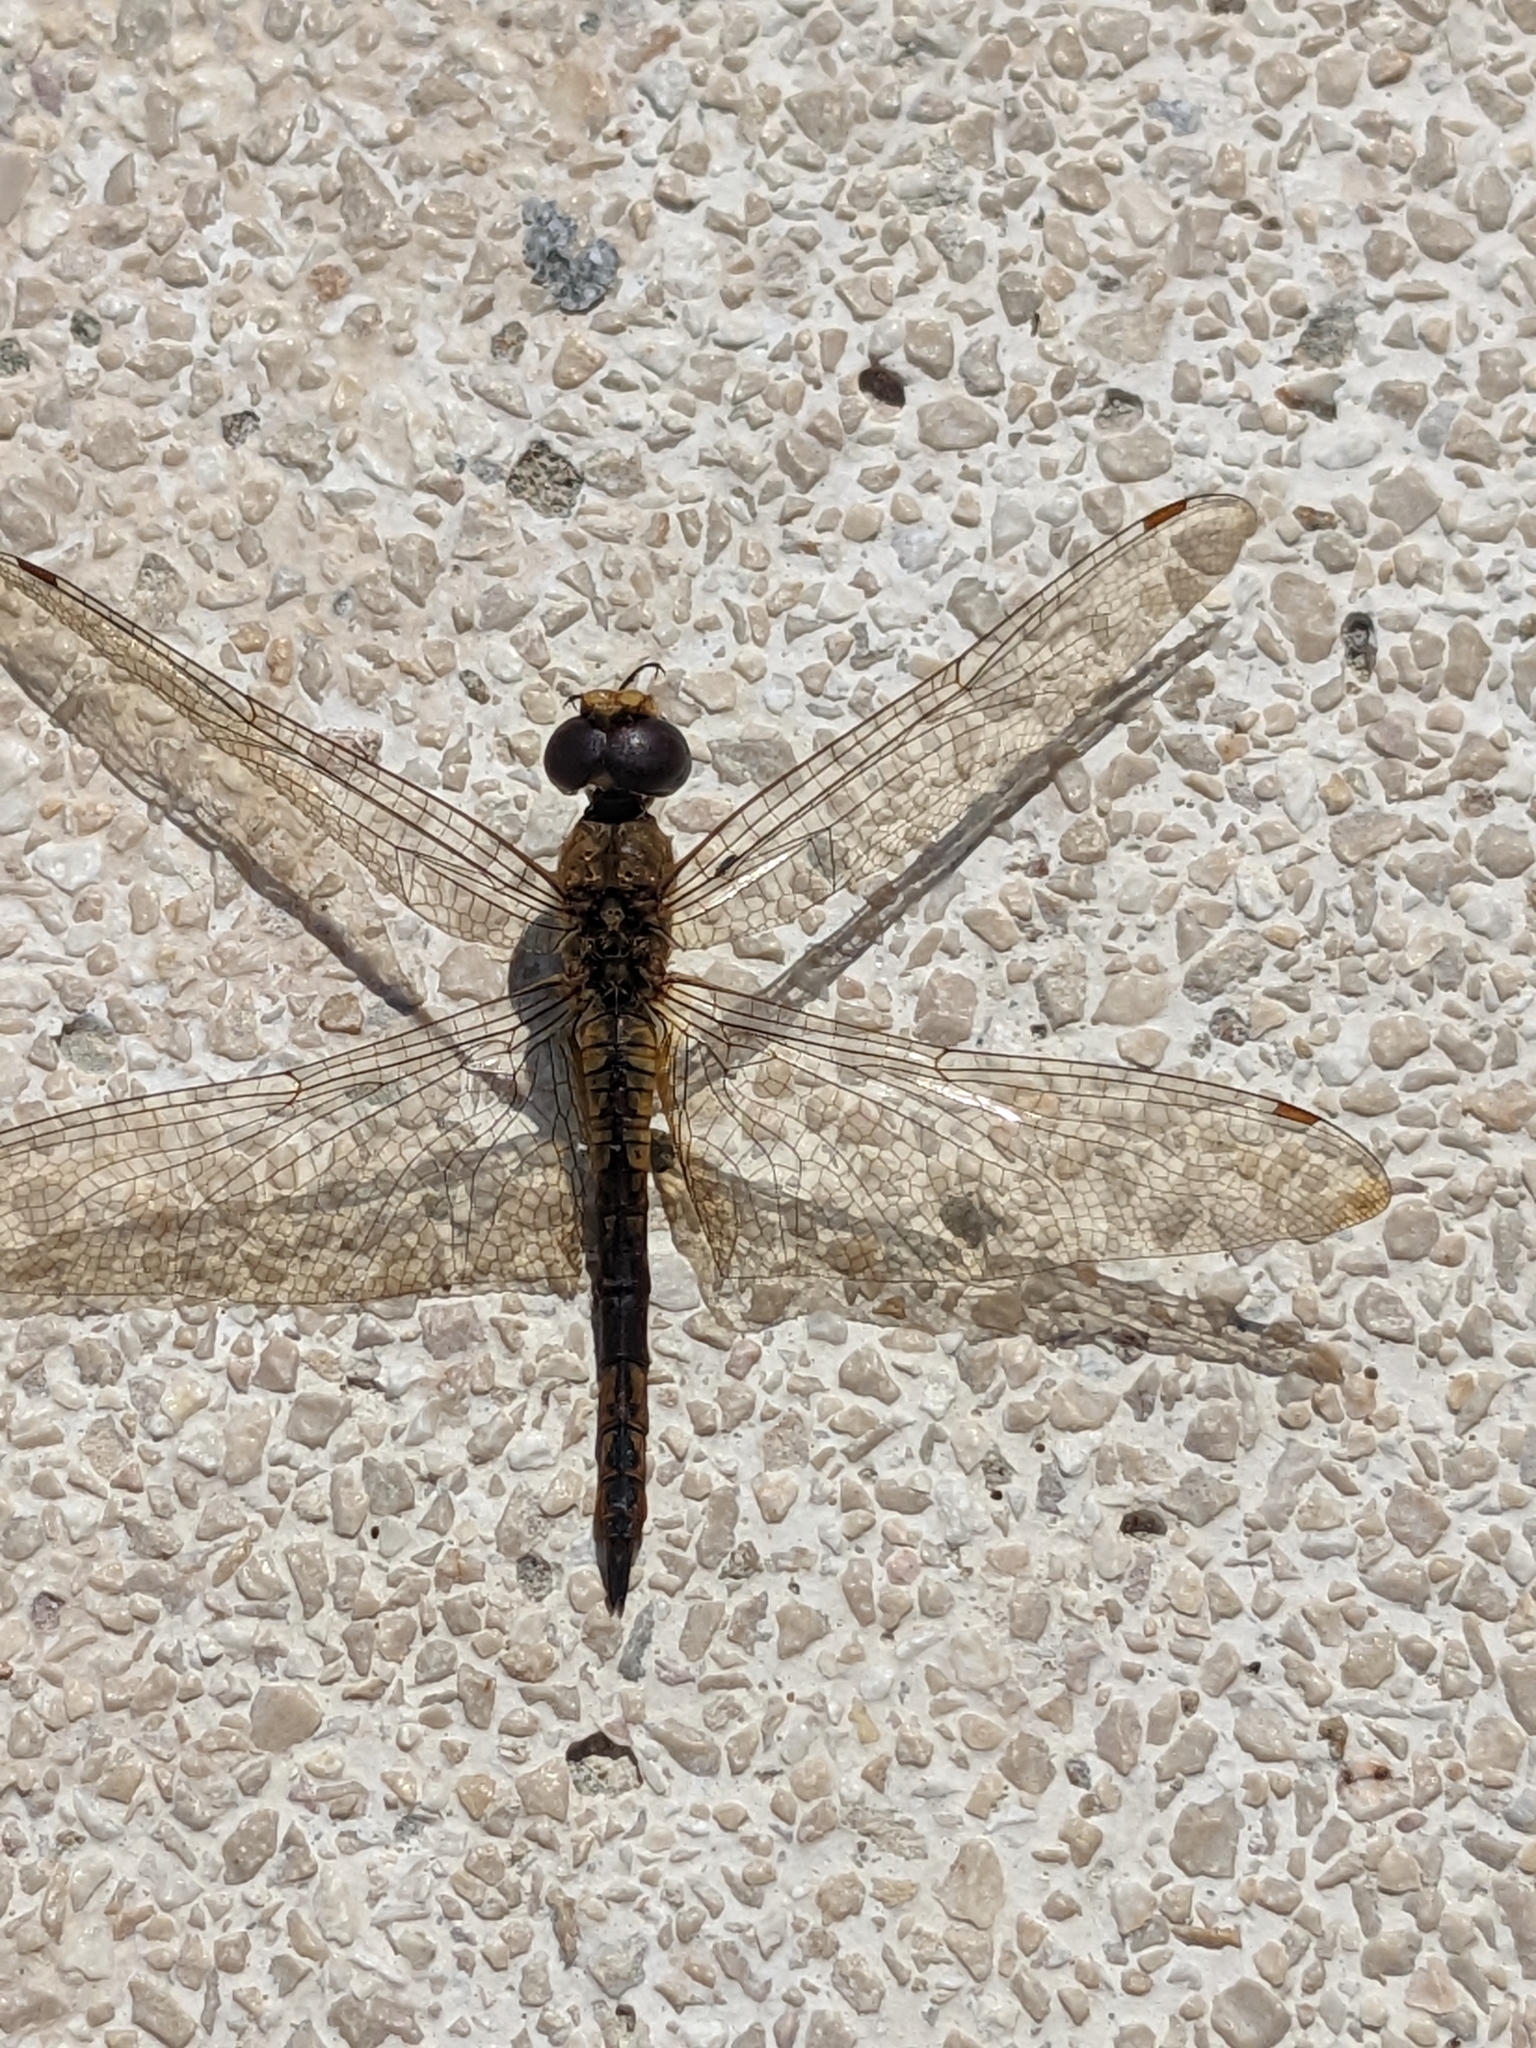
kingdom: Animalia
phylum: Arthropoda
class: Insecta
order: Odonata
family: Libellulidae
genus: Pantala
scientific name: Pantala flavescens
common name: Wandering glider
